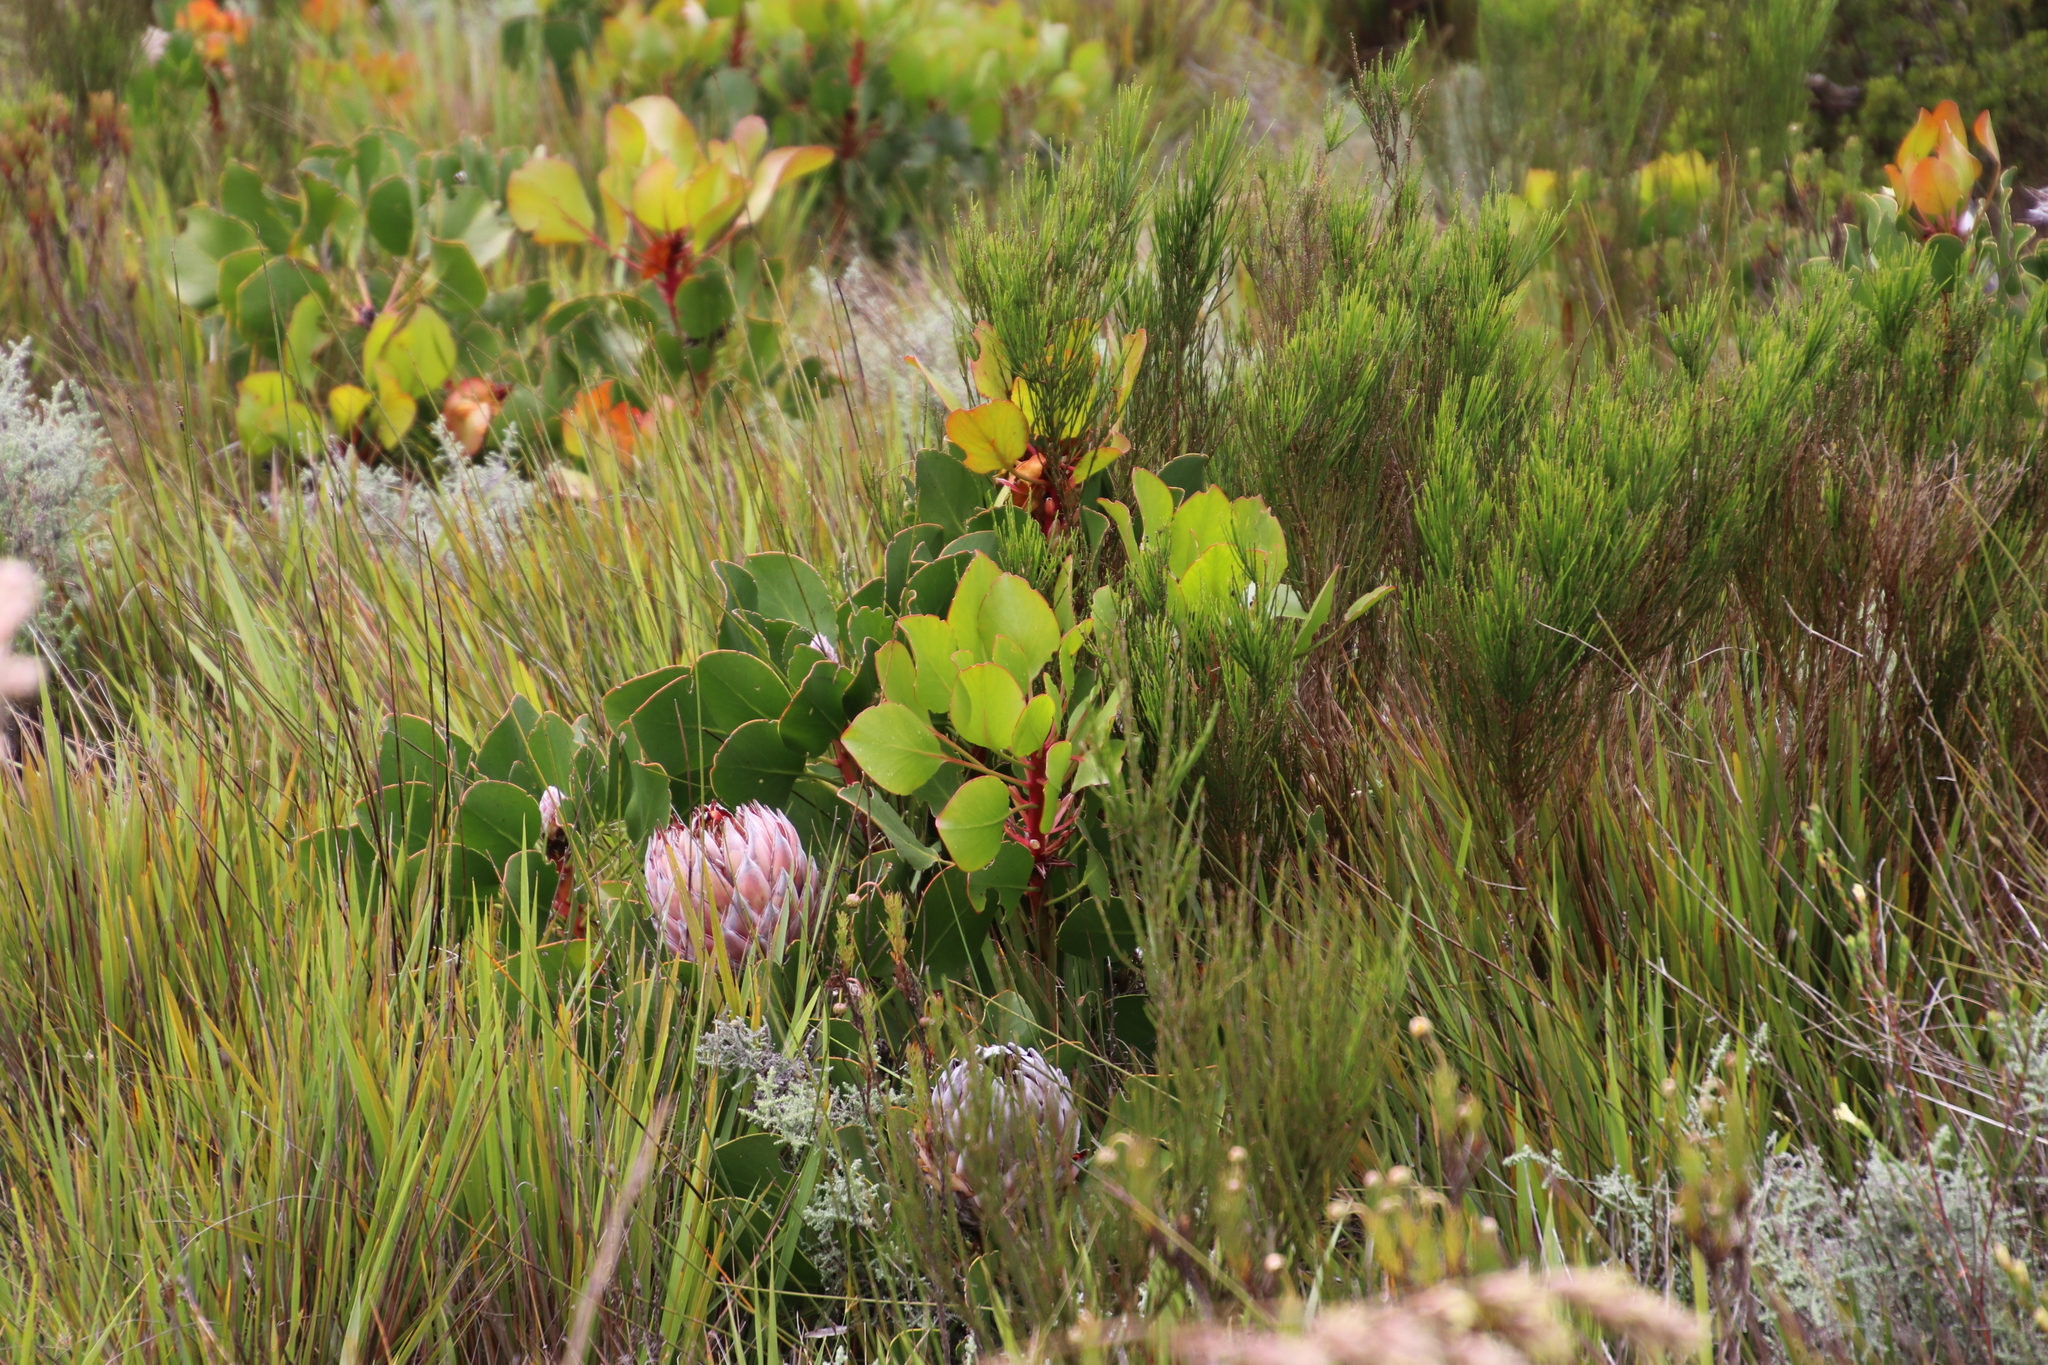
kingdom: Plantae
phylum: Tracheophyta
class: Magnoliopsida
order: Proteales
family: Proteaceae
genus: Protea
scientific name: Protea cynaroides
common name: King protea
